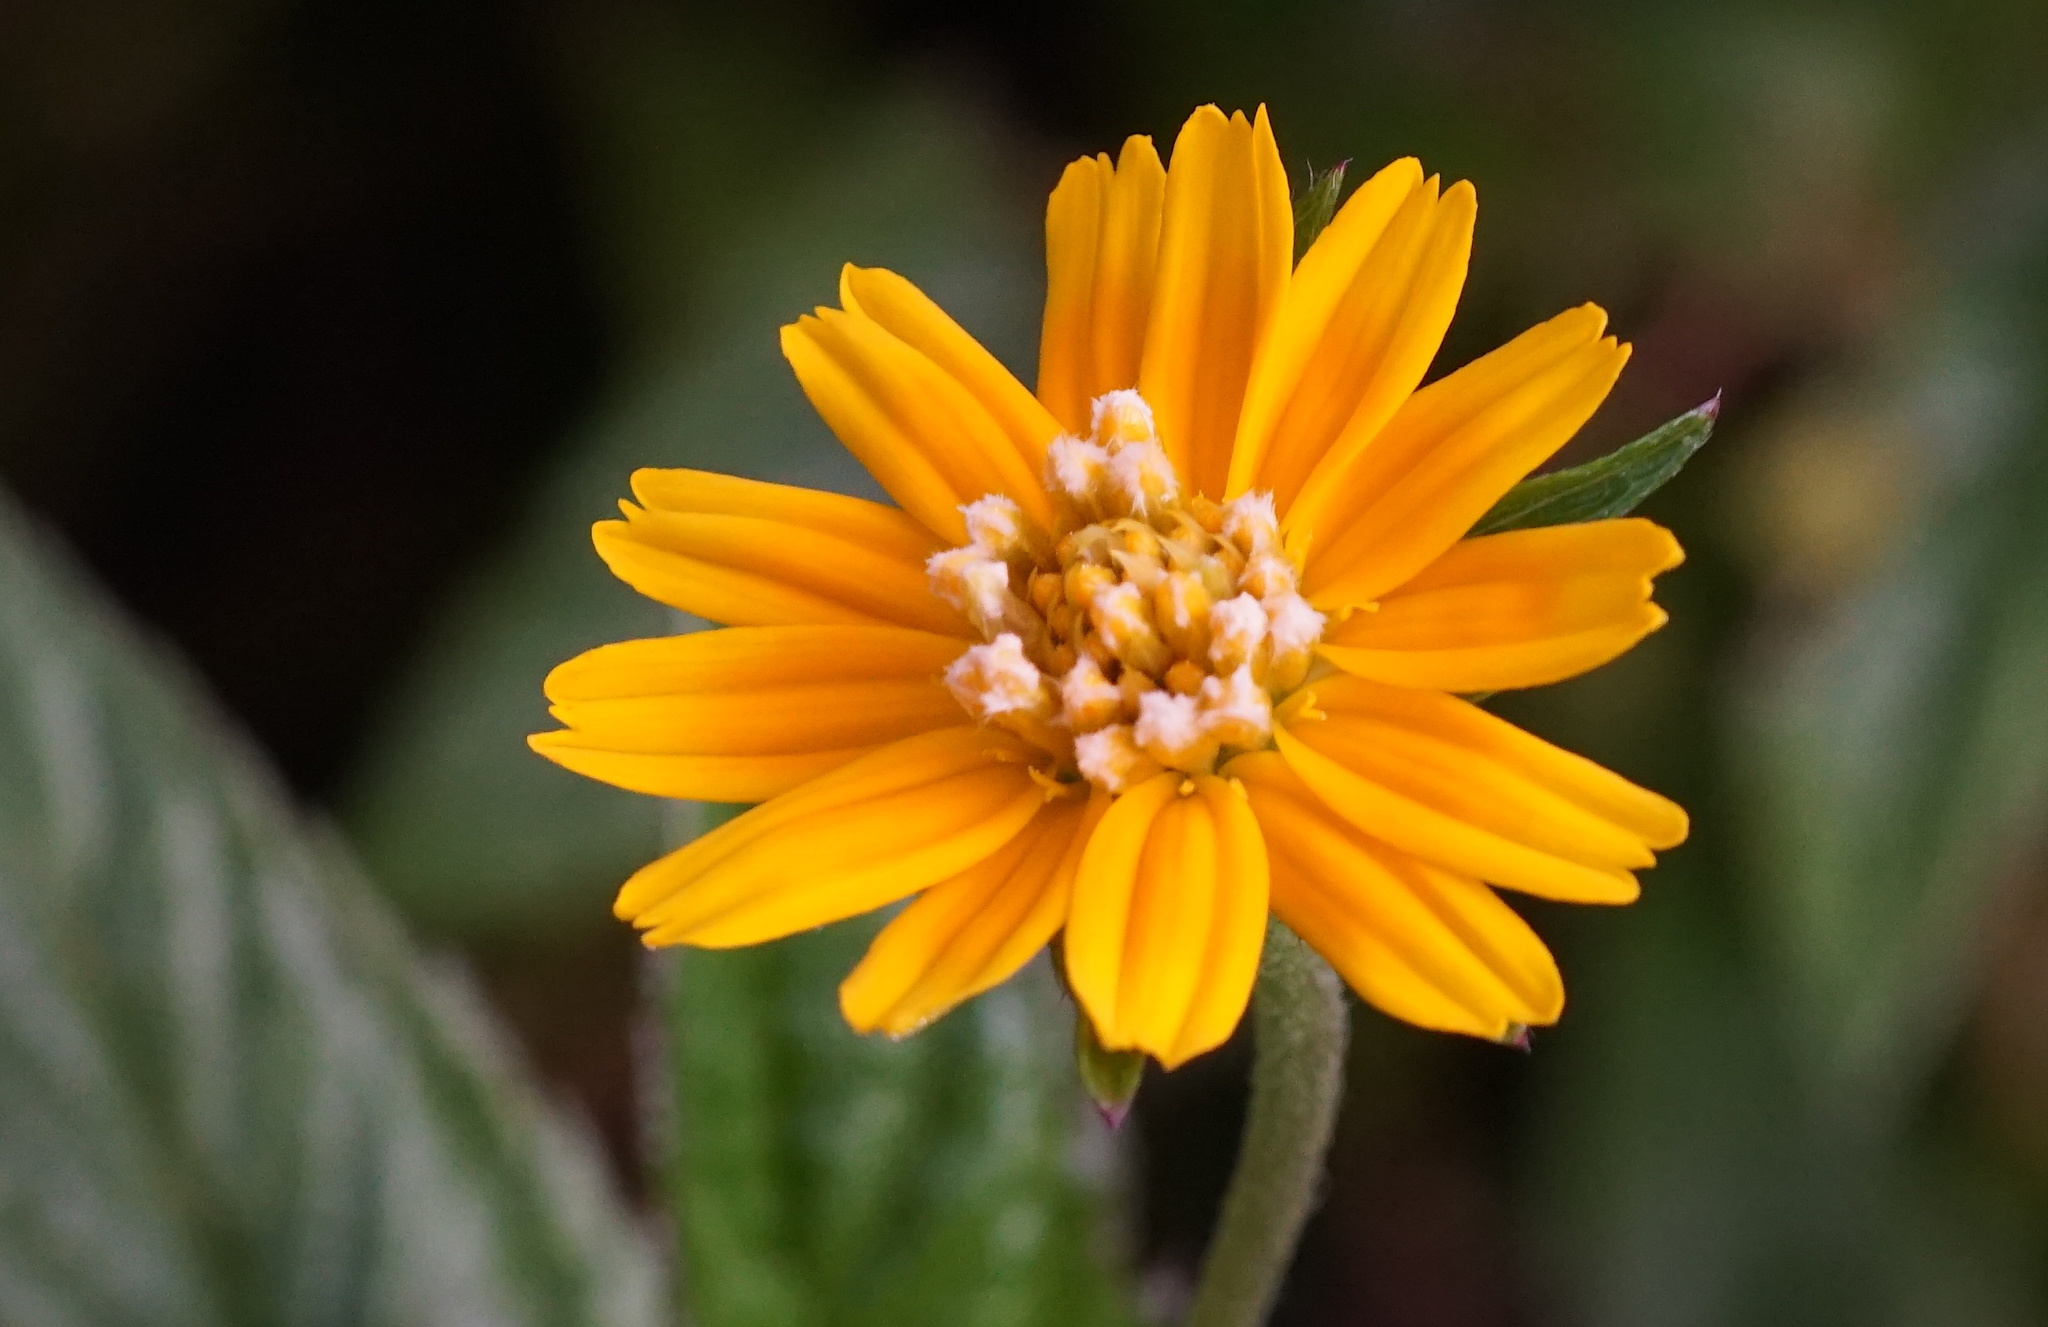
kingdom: Plantae
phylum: Tracheophyta
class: Magnoliopsida
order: Asterales
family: Asteraceae
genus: Sphagneticola
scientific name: Sphagneticola trilobata
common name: Bay biscayne creeping-oxeye
